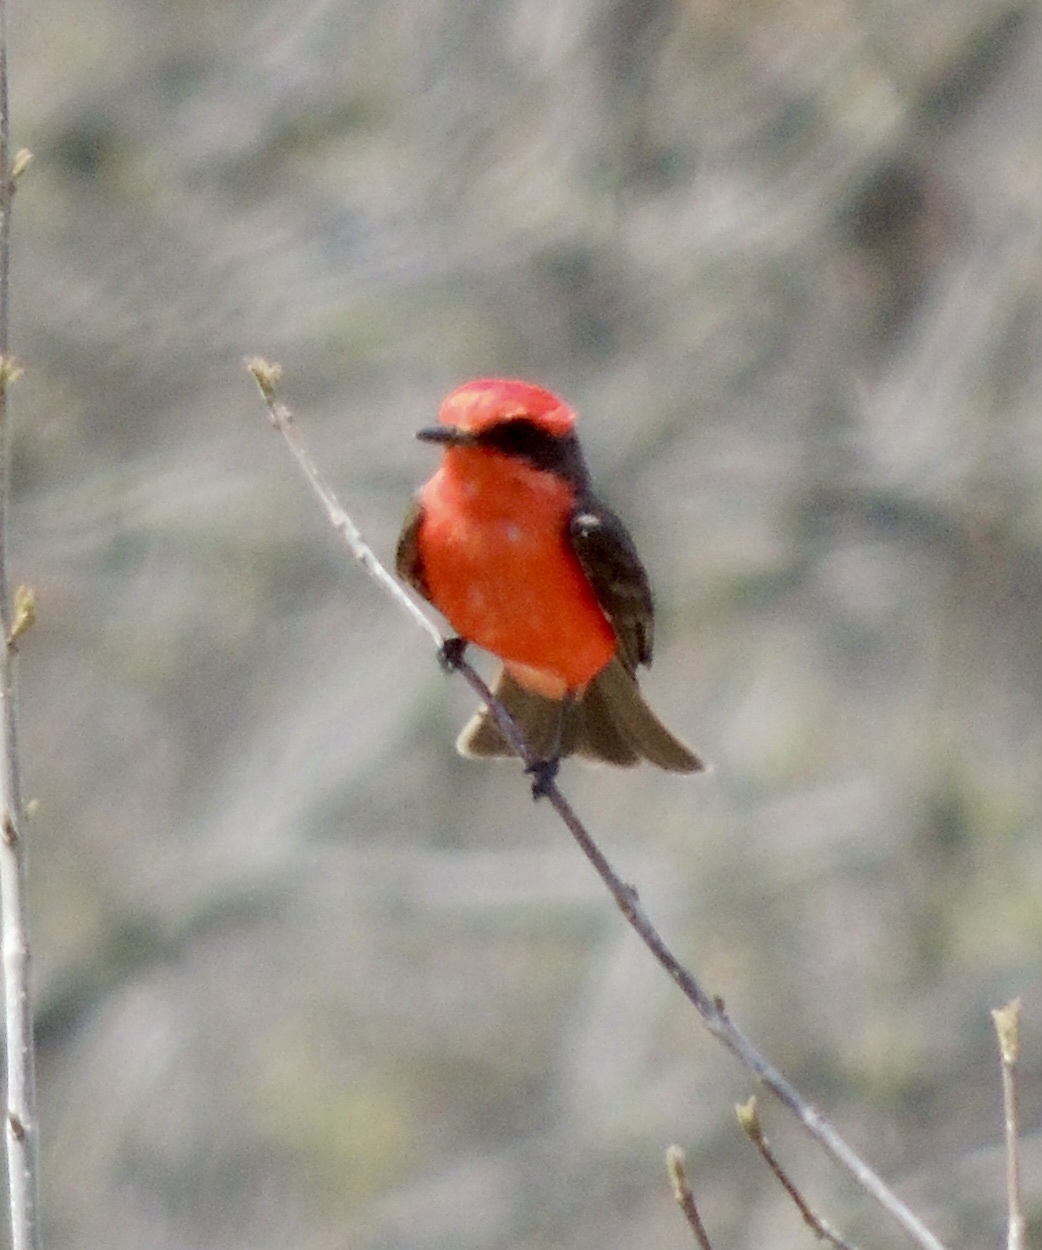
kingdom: Animalia
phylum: Chordata
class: Aves
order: Passeriformes
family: Tyrannidae
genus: Pyrocephalus
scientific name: Pyrocephalus rubinus
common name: Vermilion flycatcher
